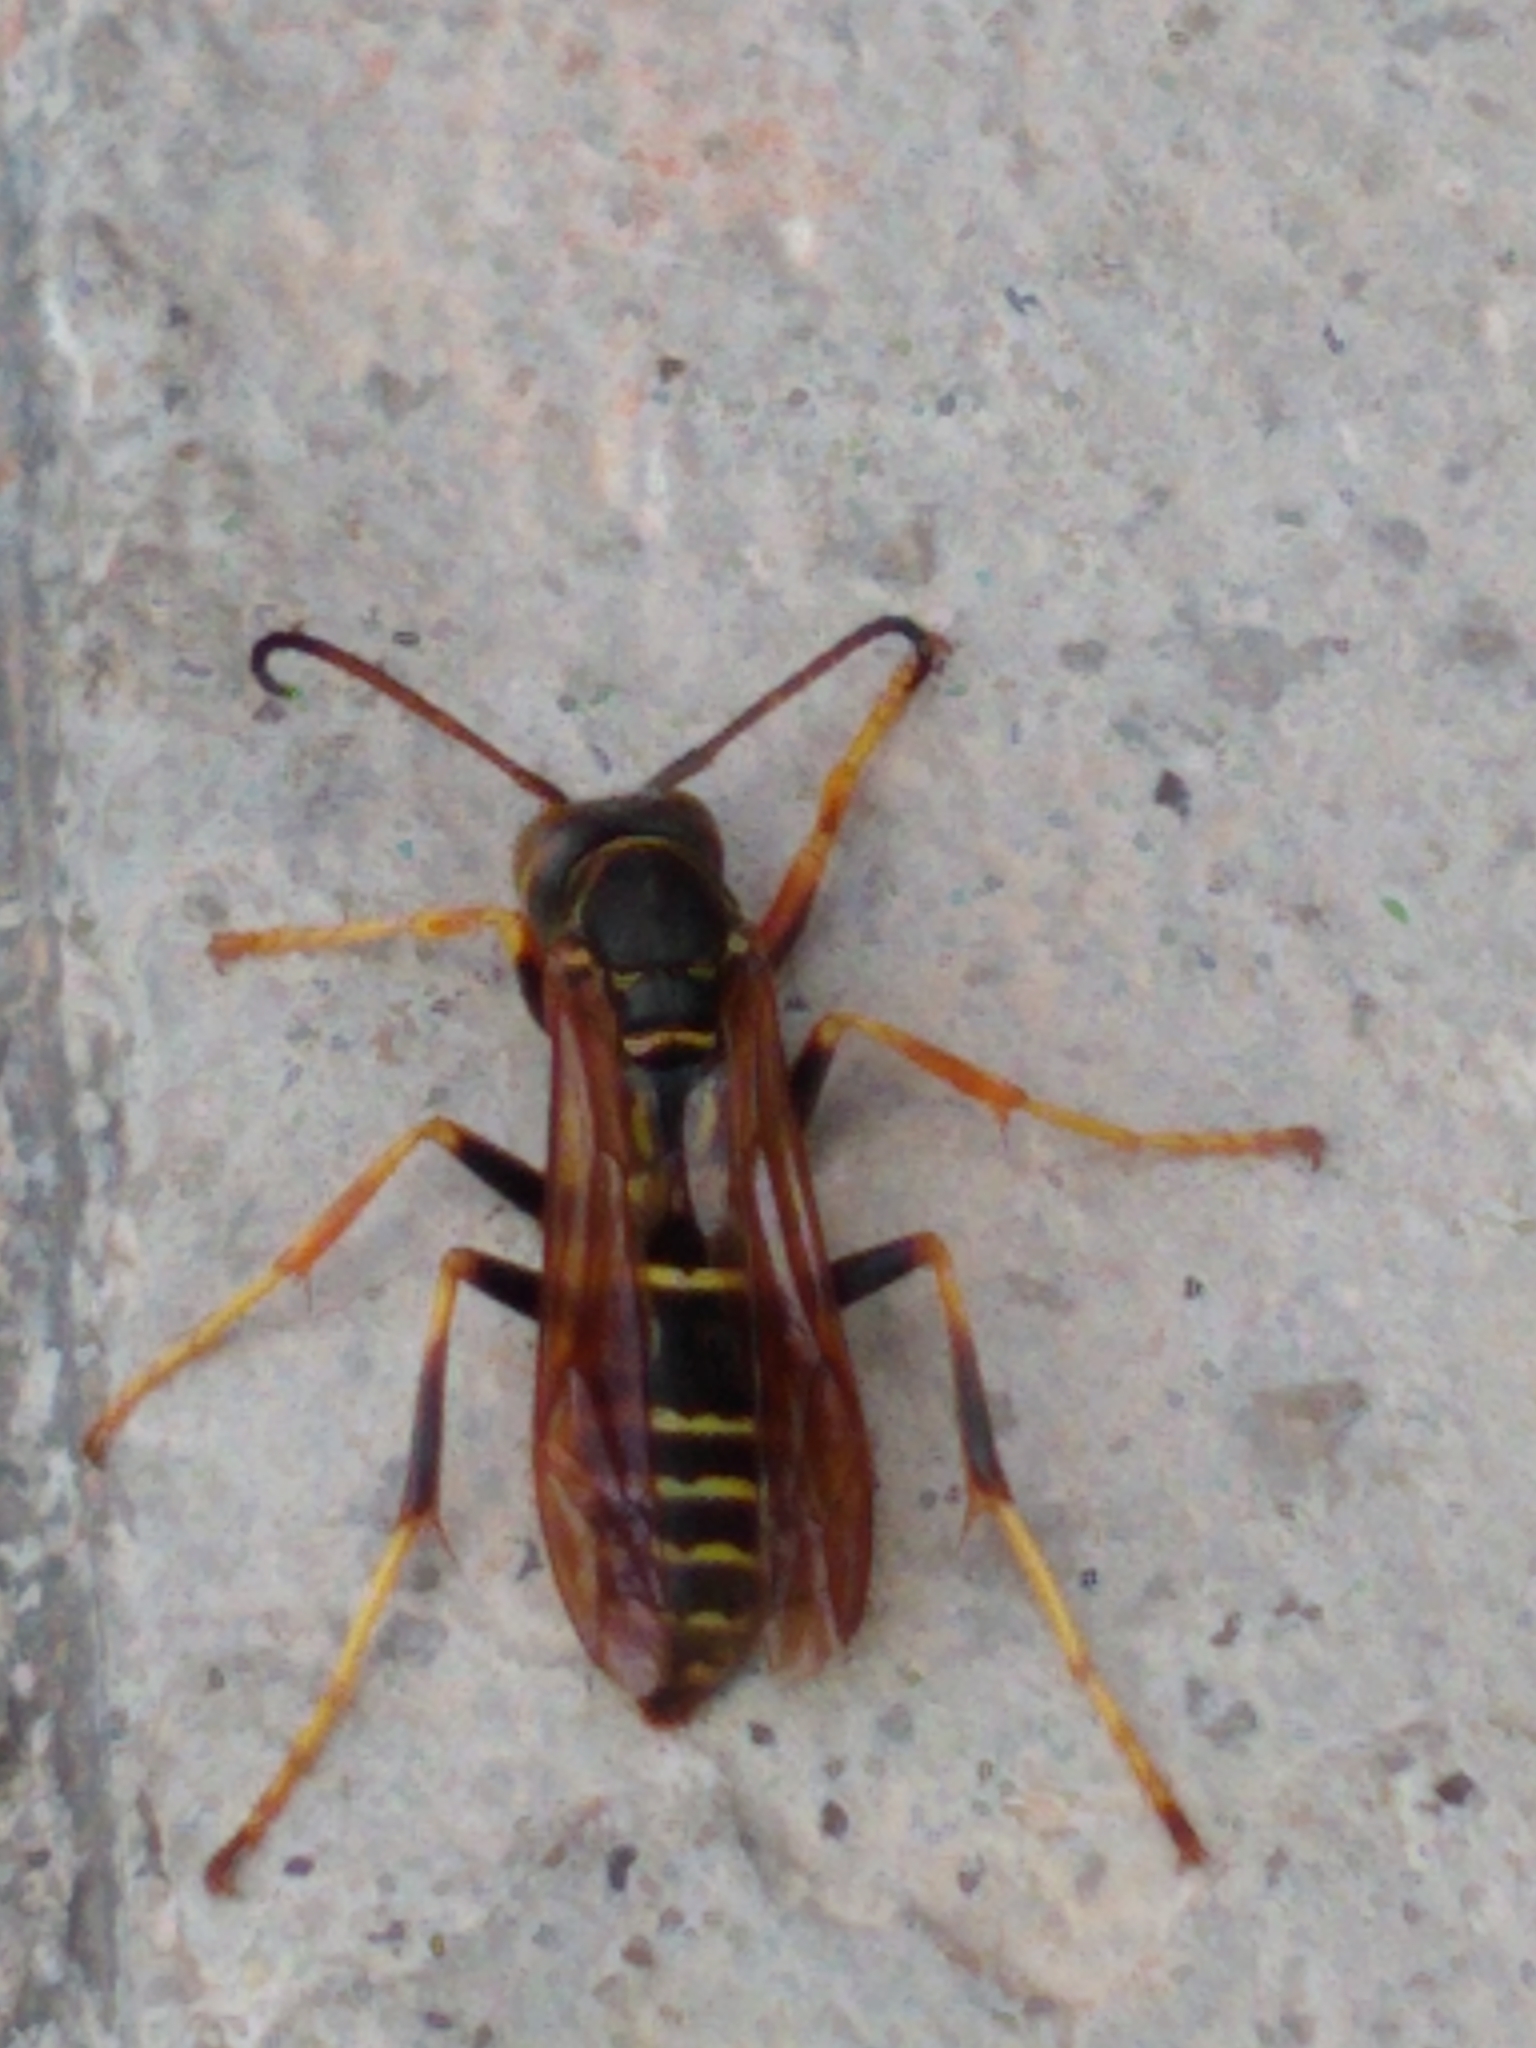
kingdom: Animalia
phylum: Arthropoda
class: Insecta
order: Hymenoptera
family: Eumenidae
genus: Polistes
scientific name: Polistes fuscatus
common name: Dark paper wasp
